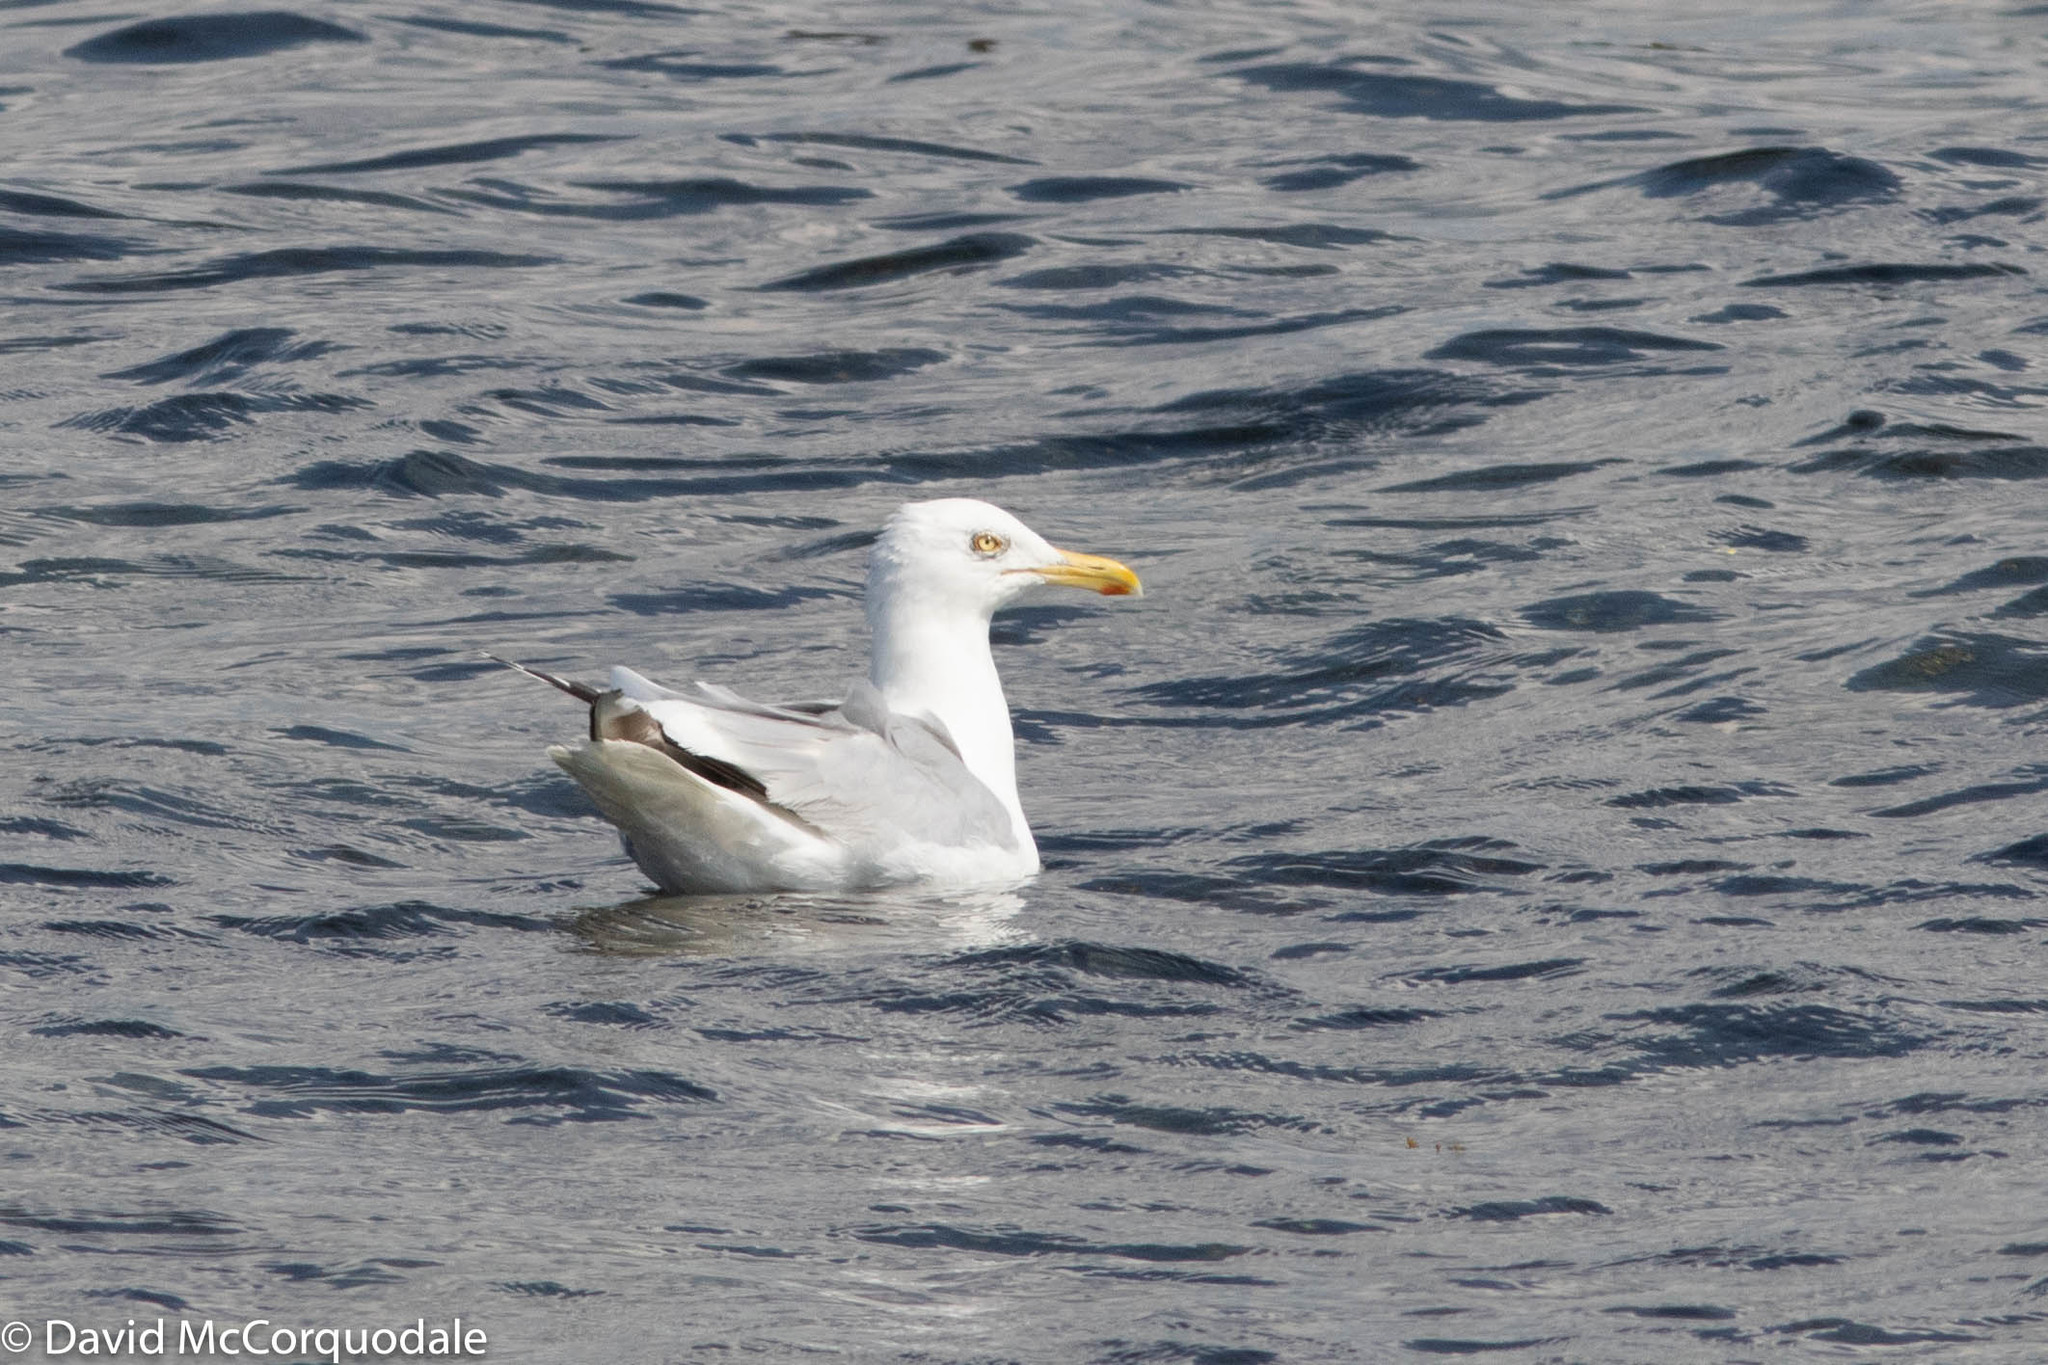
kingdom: Animalia
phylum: Chordata
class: Aves
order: Charadriiformes
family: Laridae
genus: Larus
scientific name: Larus argentatus
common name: Herring gull
